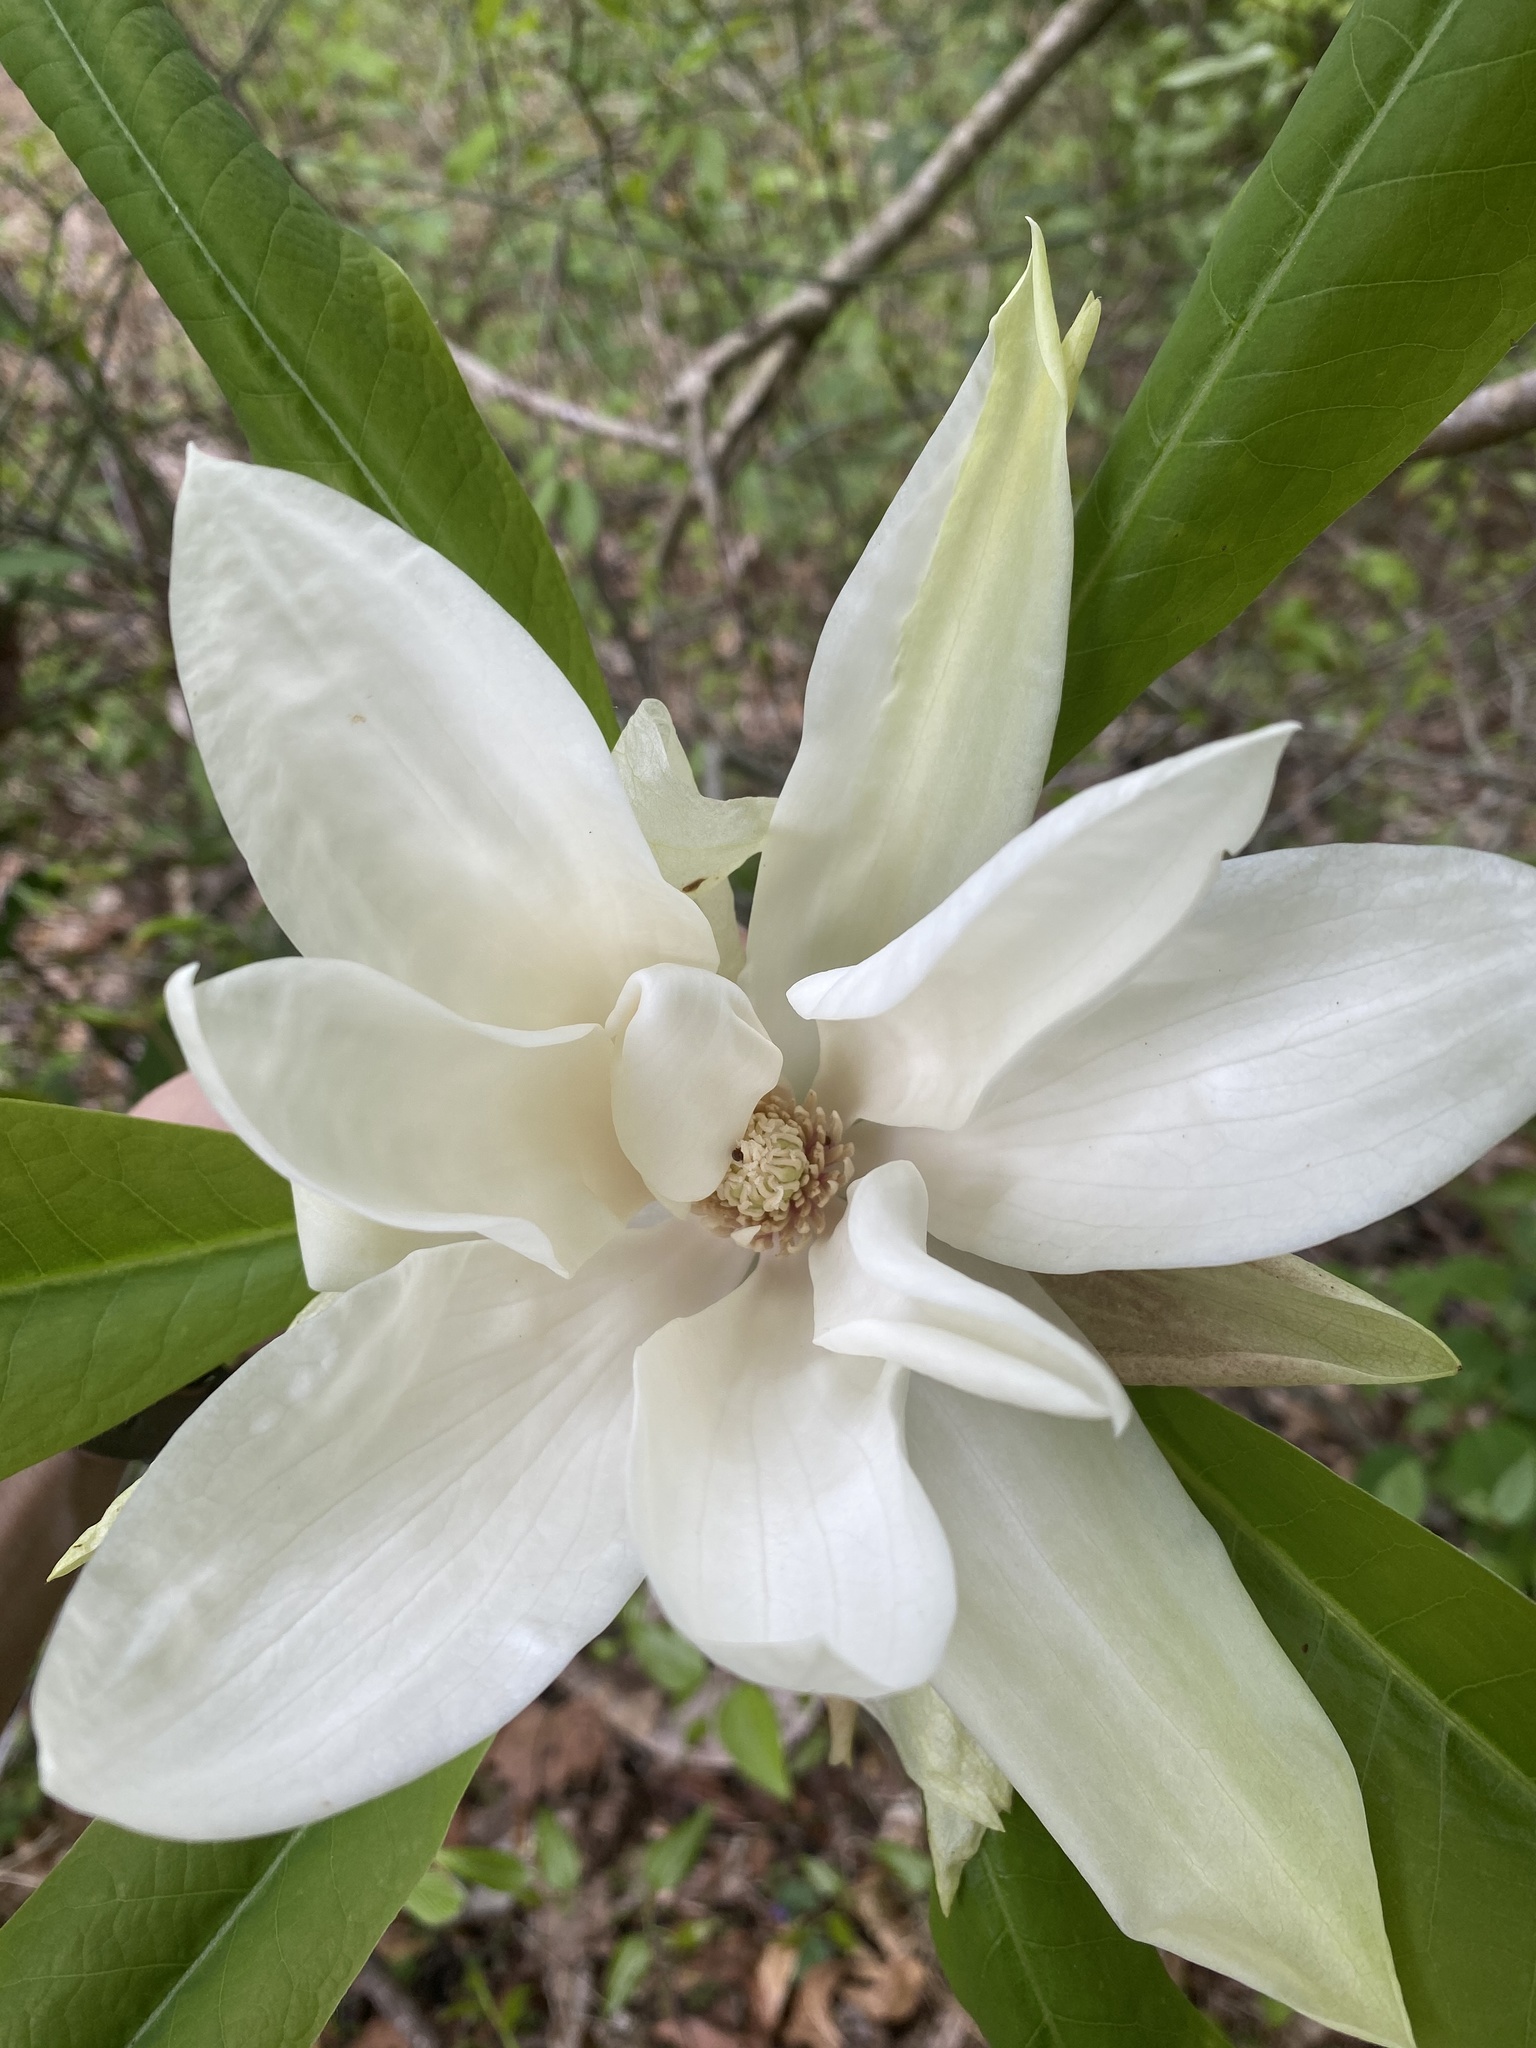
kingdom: Plantae
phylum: Tracheophyta
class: Magnoliopsida
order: Magnoliales
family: Magnoliaceae
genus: Magnolia
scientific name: Magnolia tripetala
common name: Umbrella magnolia
